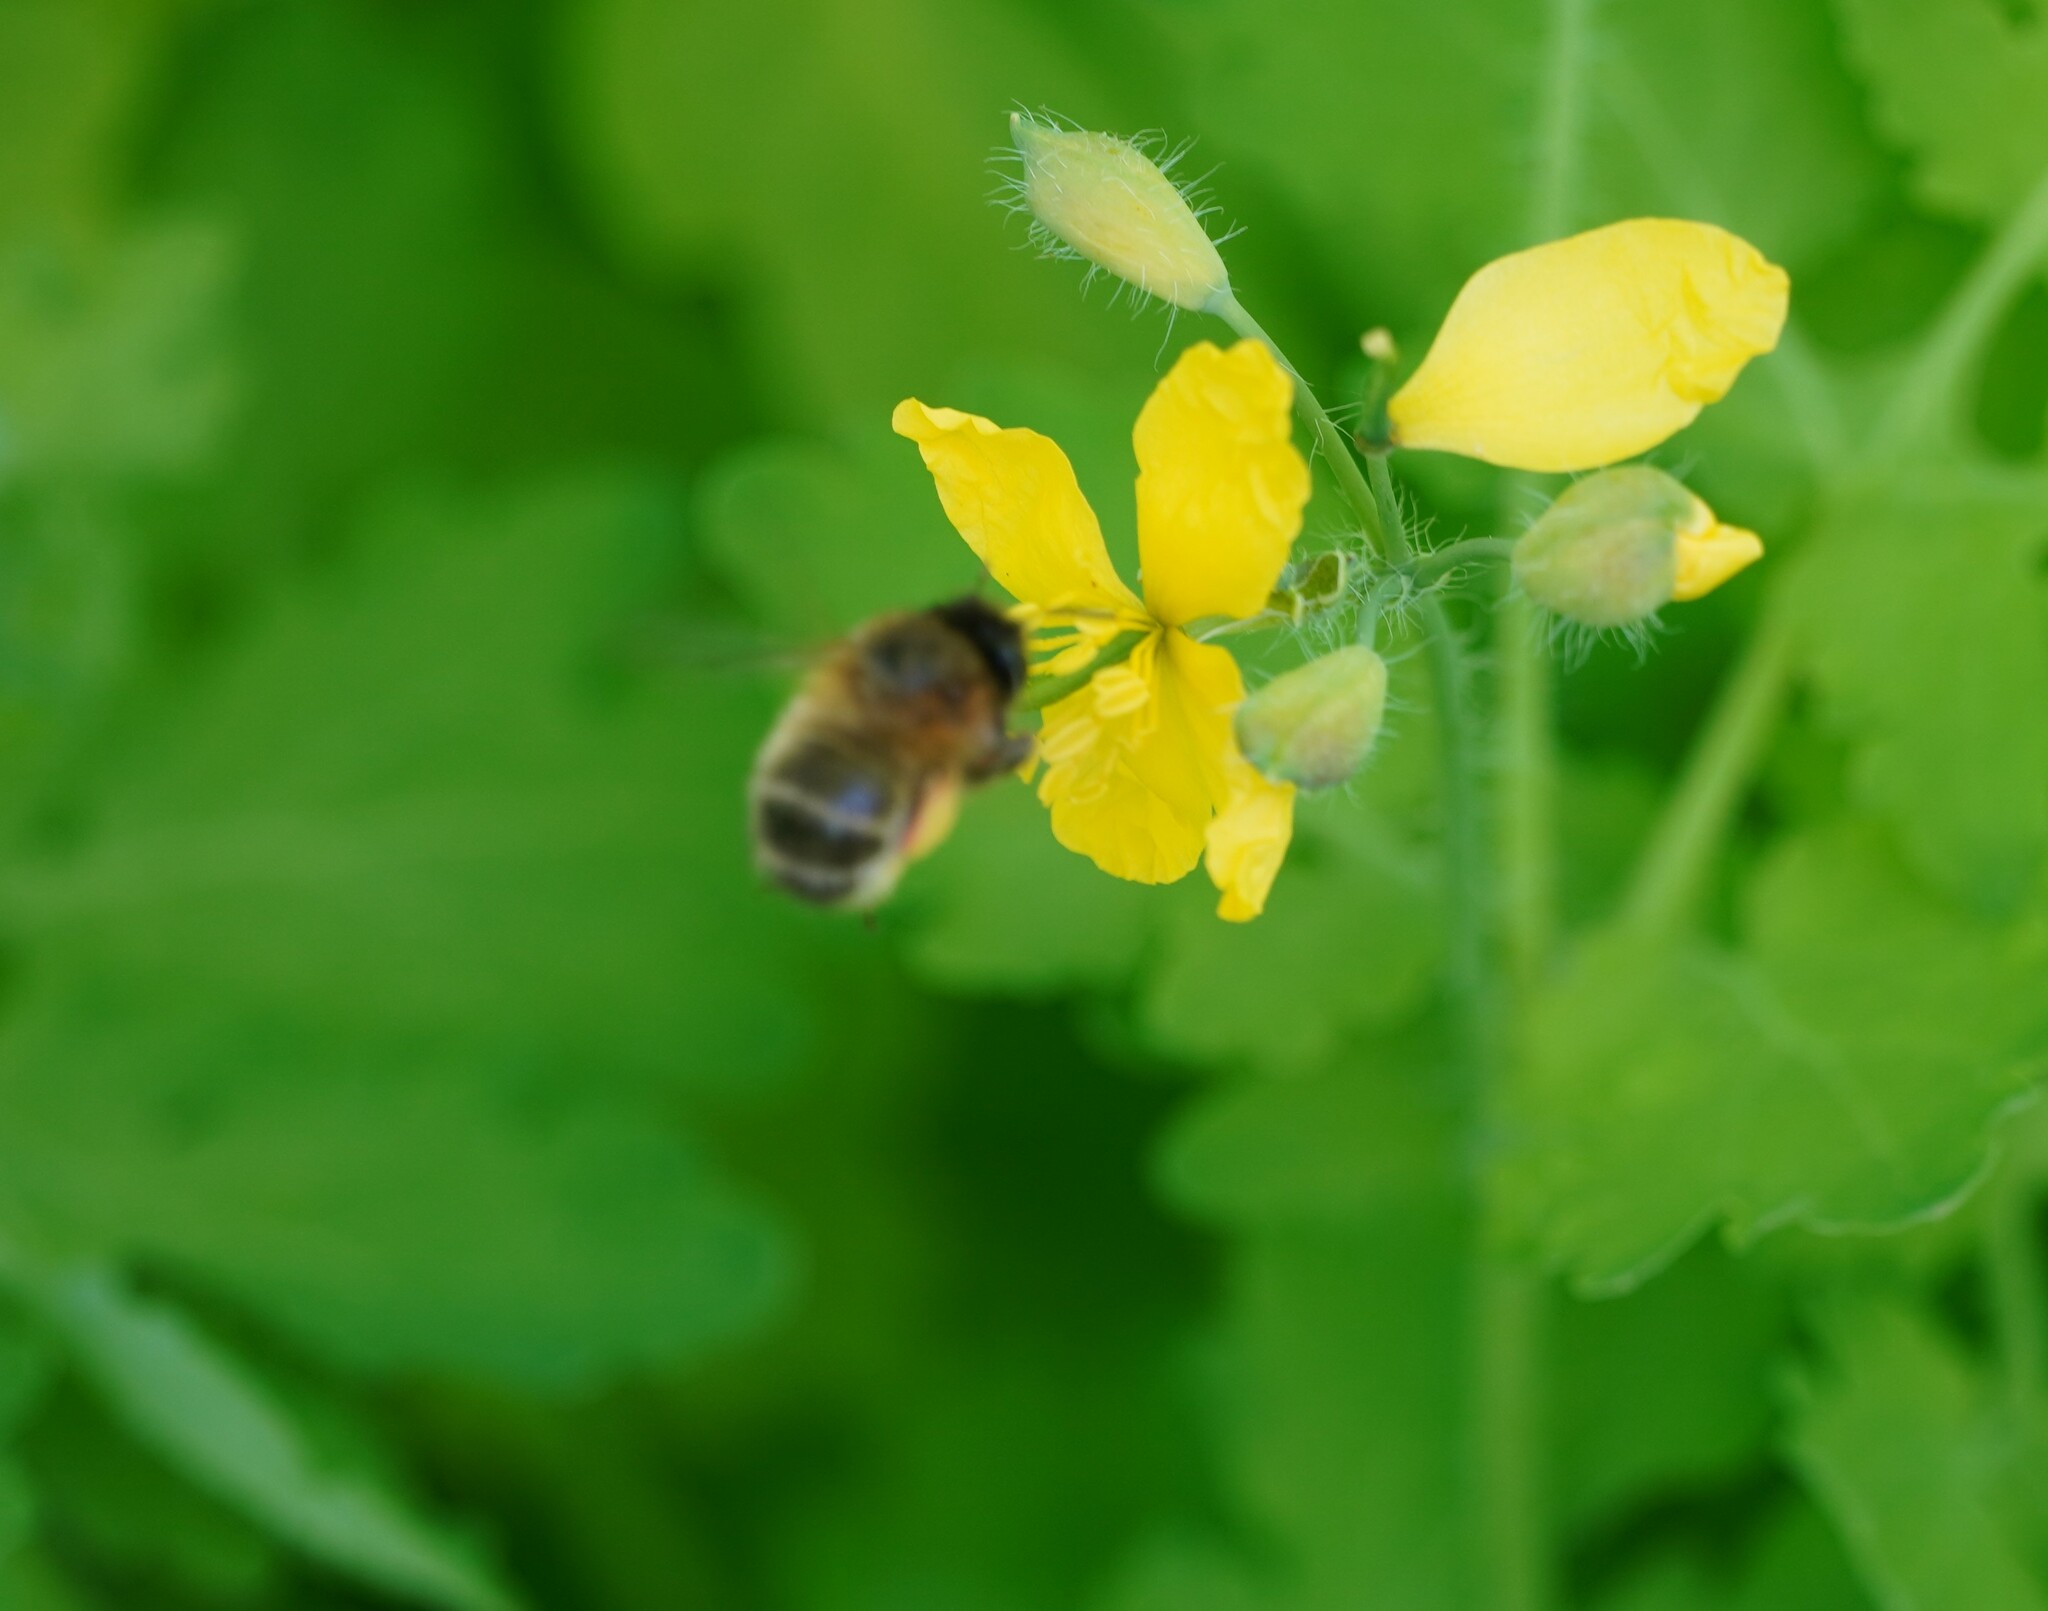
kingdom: Animalia
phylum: Arthropoda
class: Insecta
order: Hymenoptera
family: Apidae
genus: Anthophora
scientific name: Anthophora plumipes
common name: Hairy-footed flower bee
